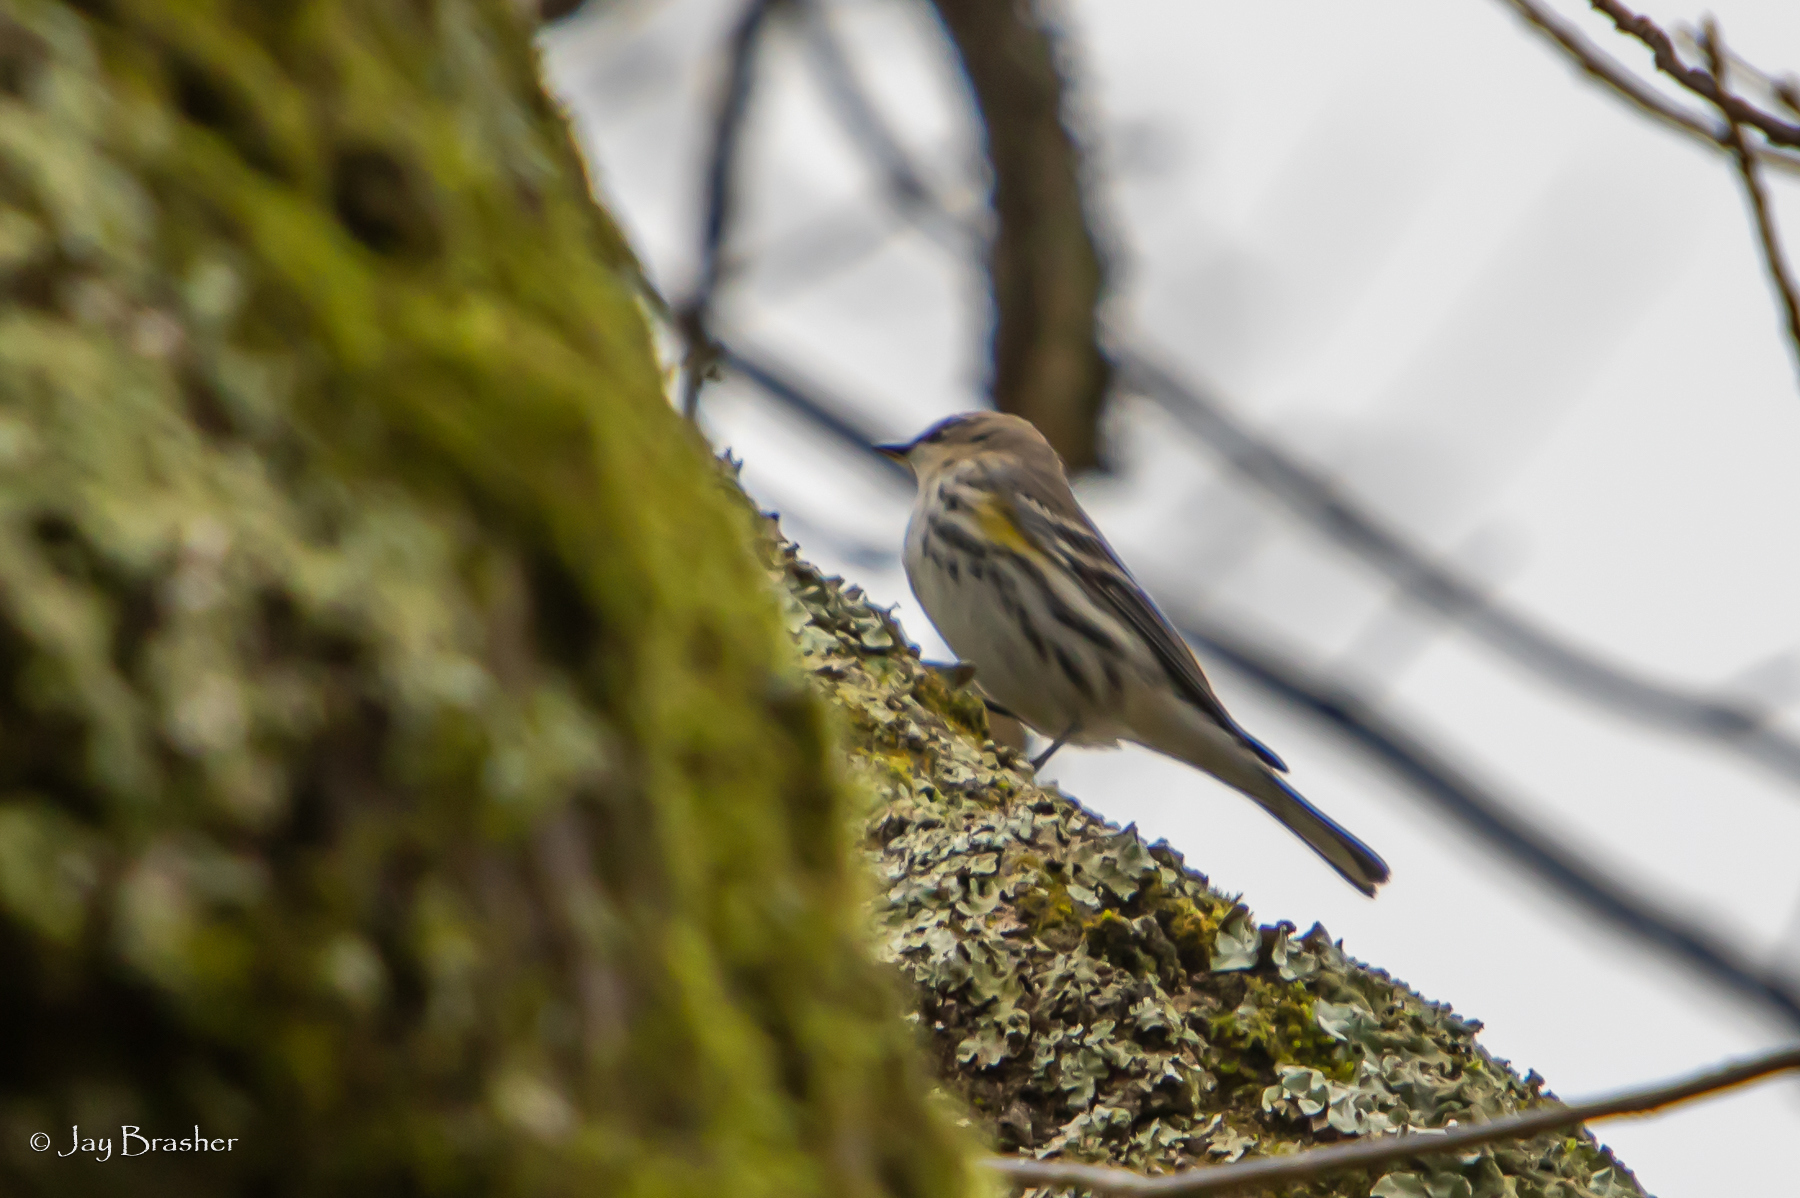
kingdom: Animalia
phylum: Chordata
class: Aves
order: Passeriformes
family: Parulidae
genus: Setophaga
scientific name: Setophaga coronata
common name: Myrtle warbler
